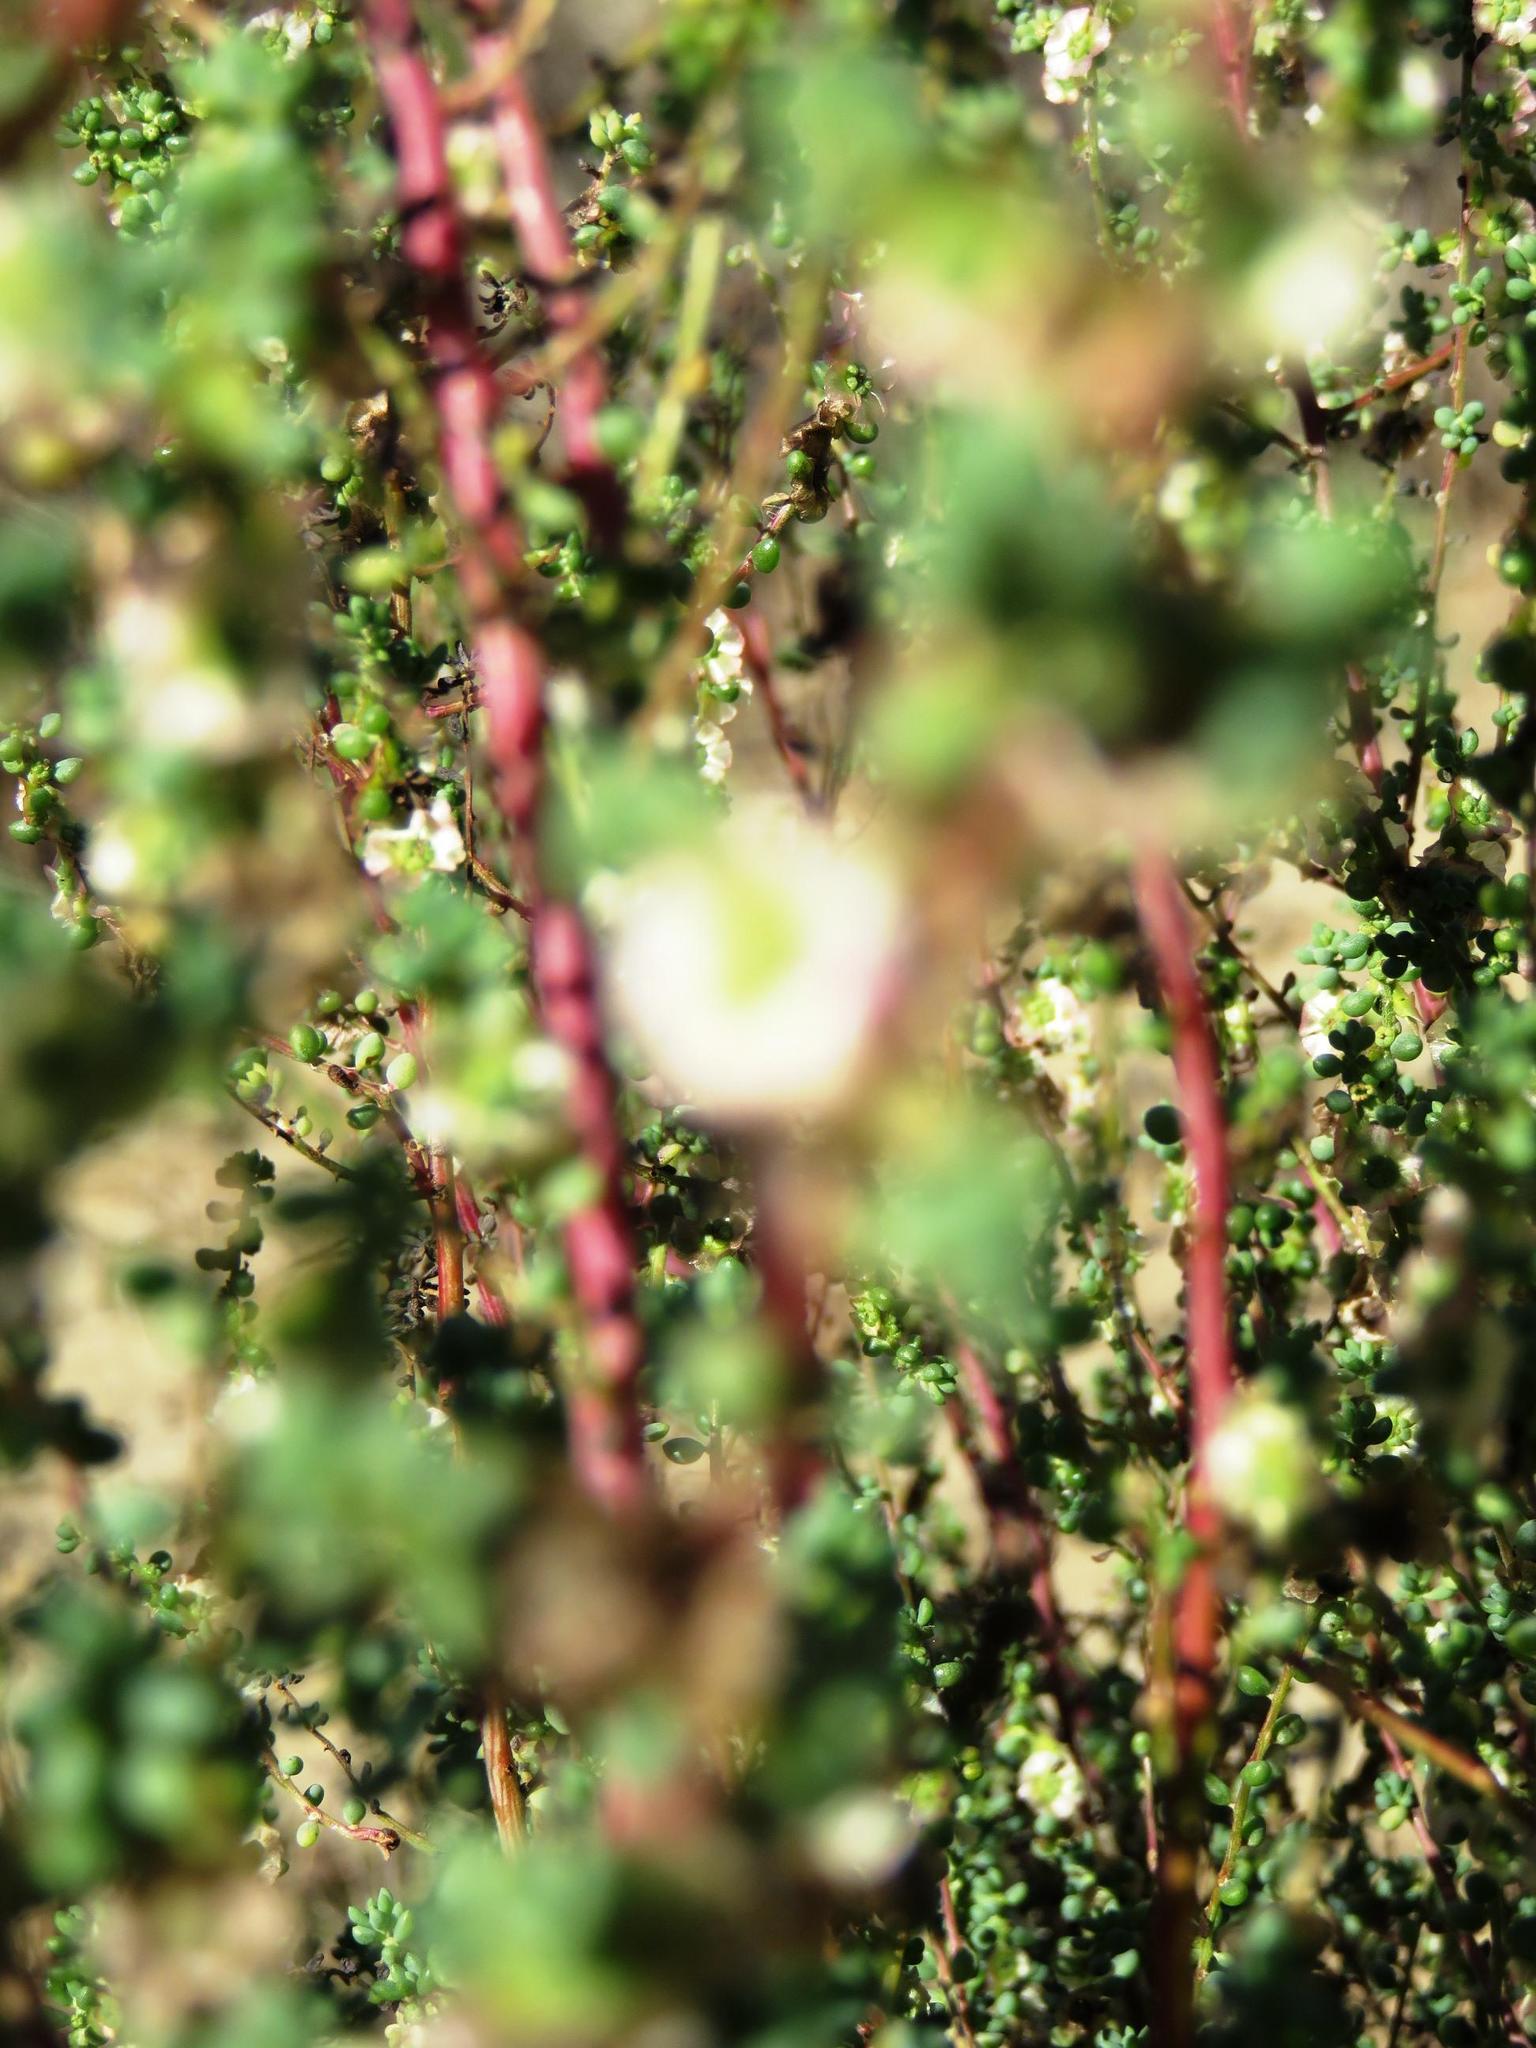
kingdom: Plantae
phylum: Tracheophyta
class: Magnoliopsida
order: Caryophyllales
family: Amaranthaceae
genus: Maireana
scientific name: Maireana brevifolia
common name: Eastern cottonbush
